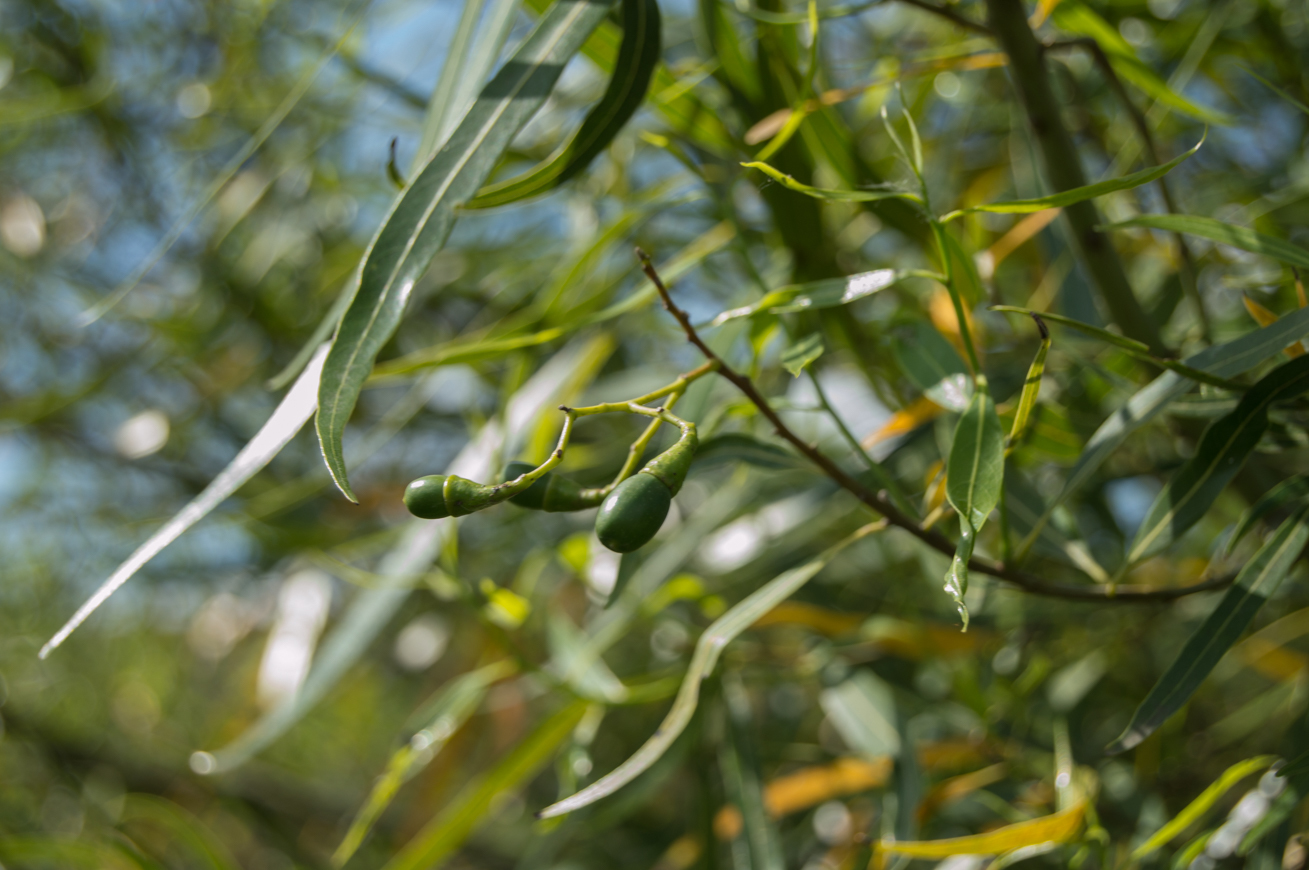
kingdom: Plantae
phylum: Tracheophyta
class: Magnoliopsida
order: Laurales
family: Lauraceae
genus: Nectandra
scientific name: Nectandra angustifolia
